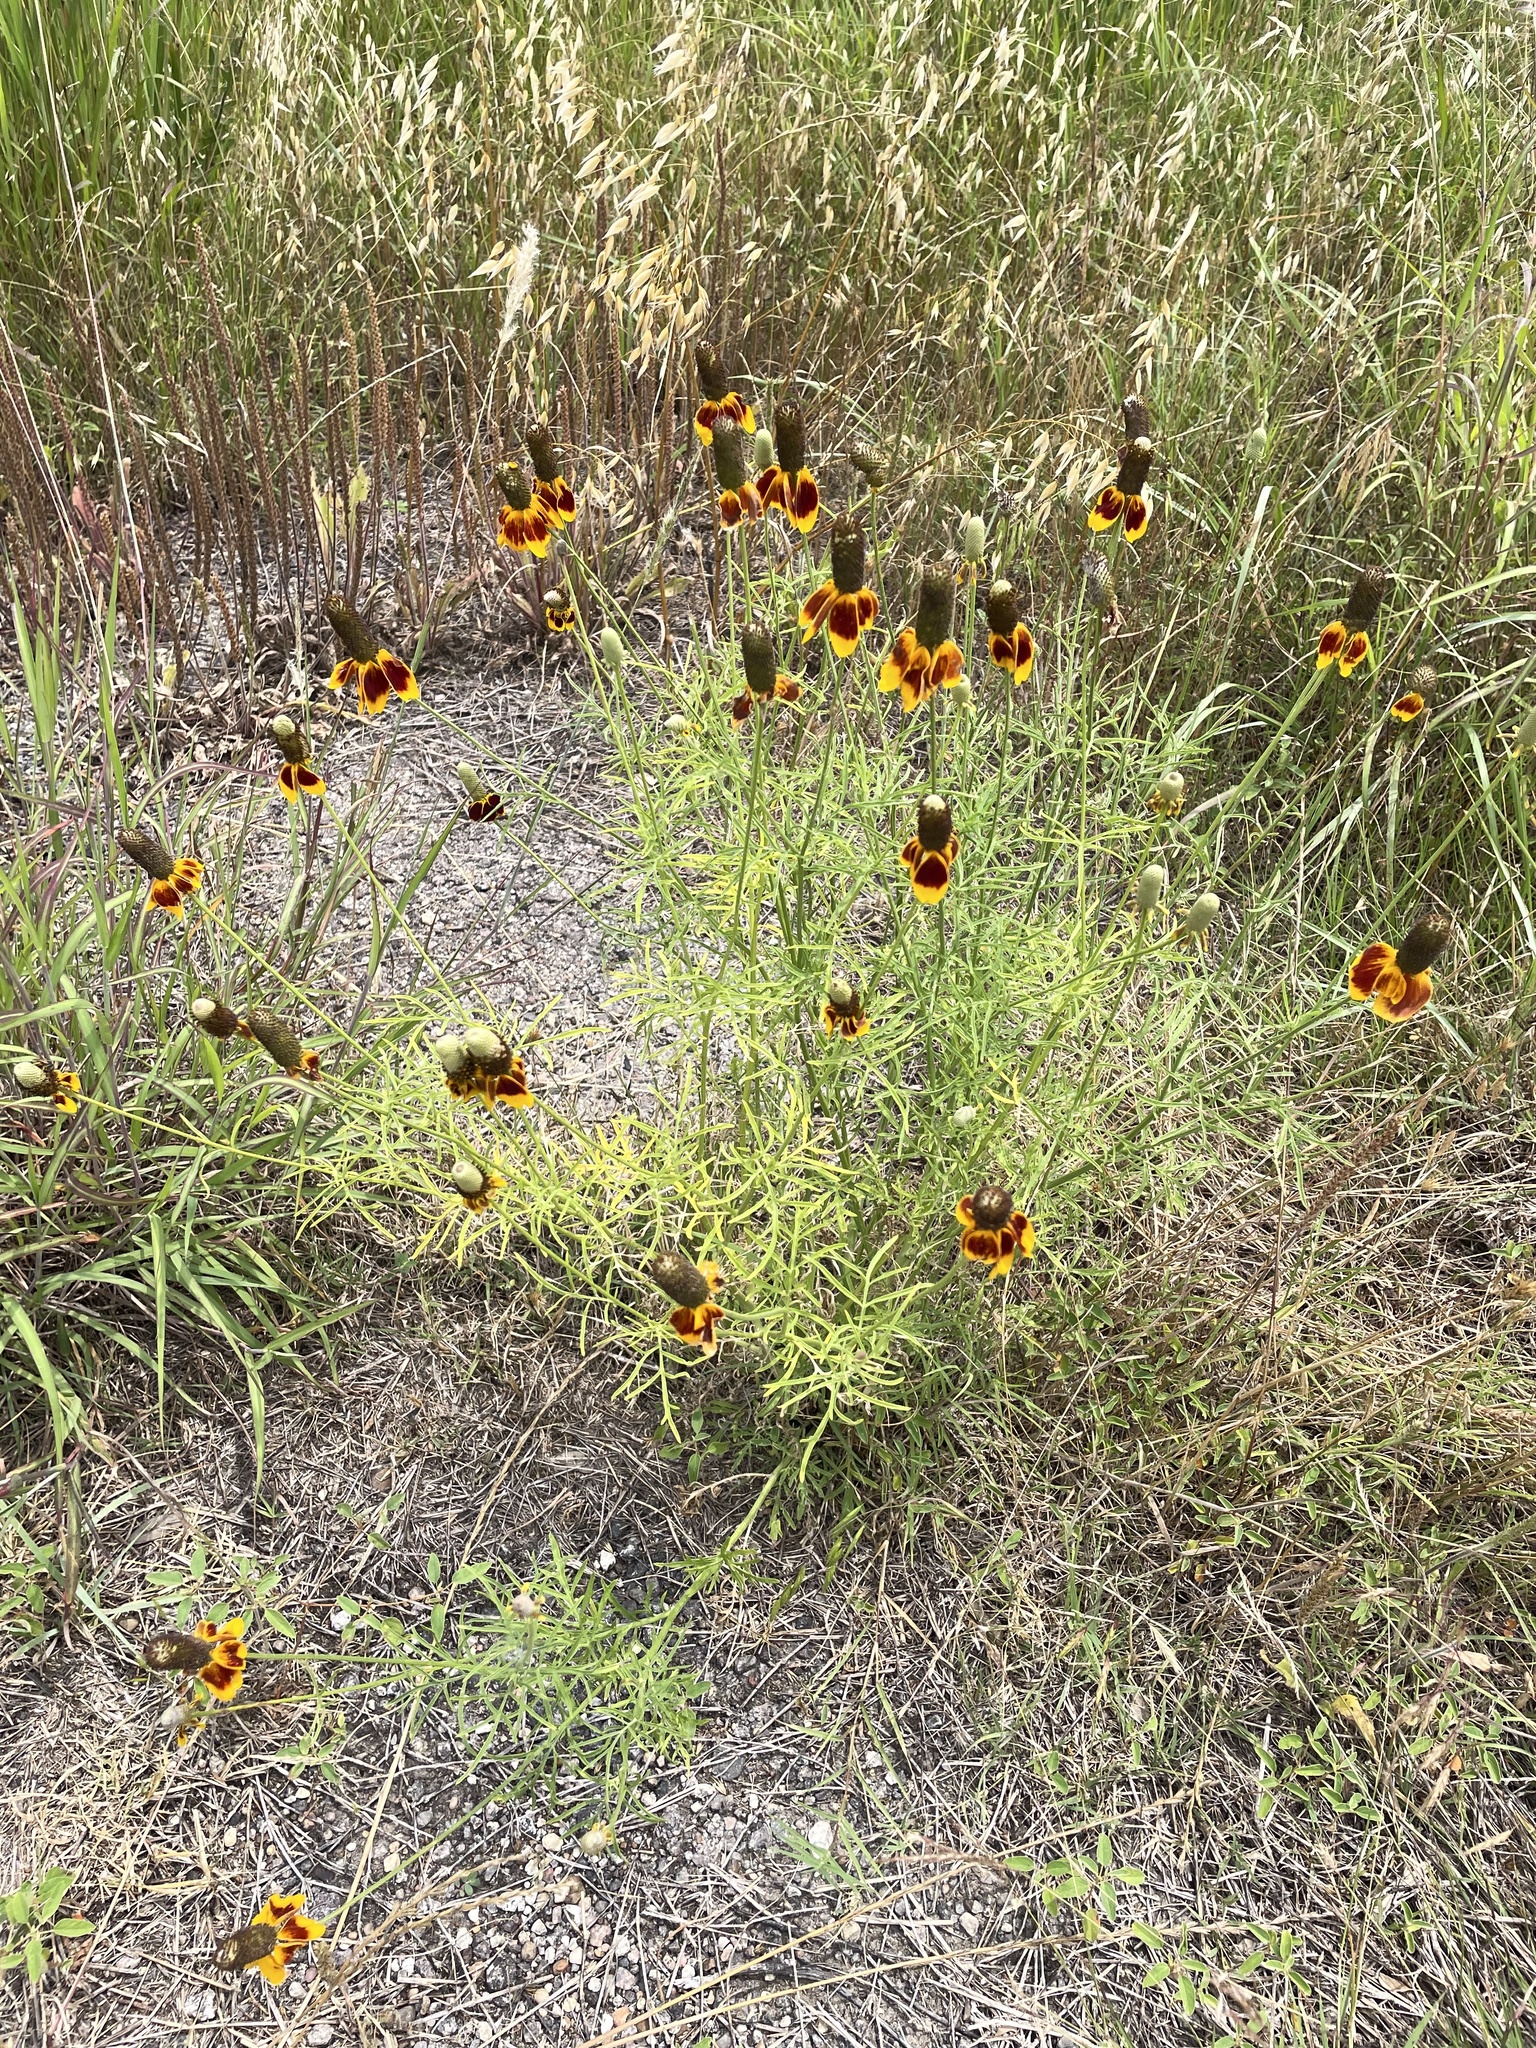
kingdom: Plantae
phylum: Tracheophyta
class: Magnoliopsida
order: Asterales
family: Asteraceae
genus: Ratibida
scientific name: Ratibida columnifera
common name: Prairie coneflower
